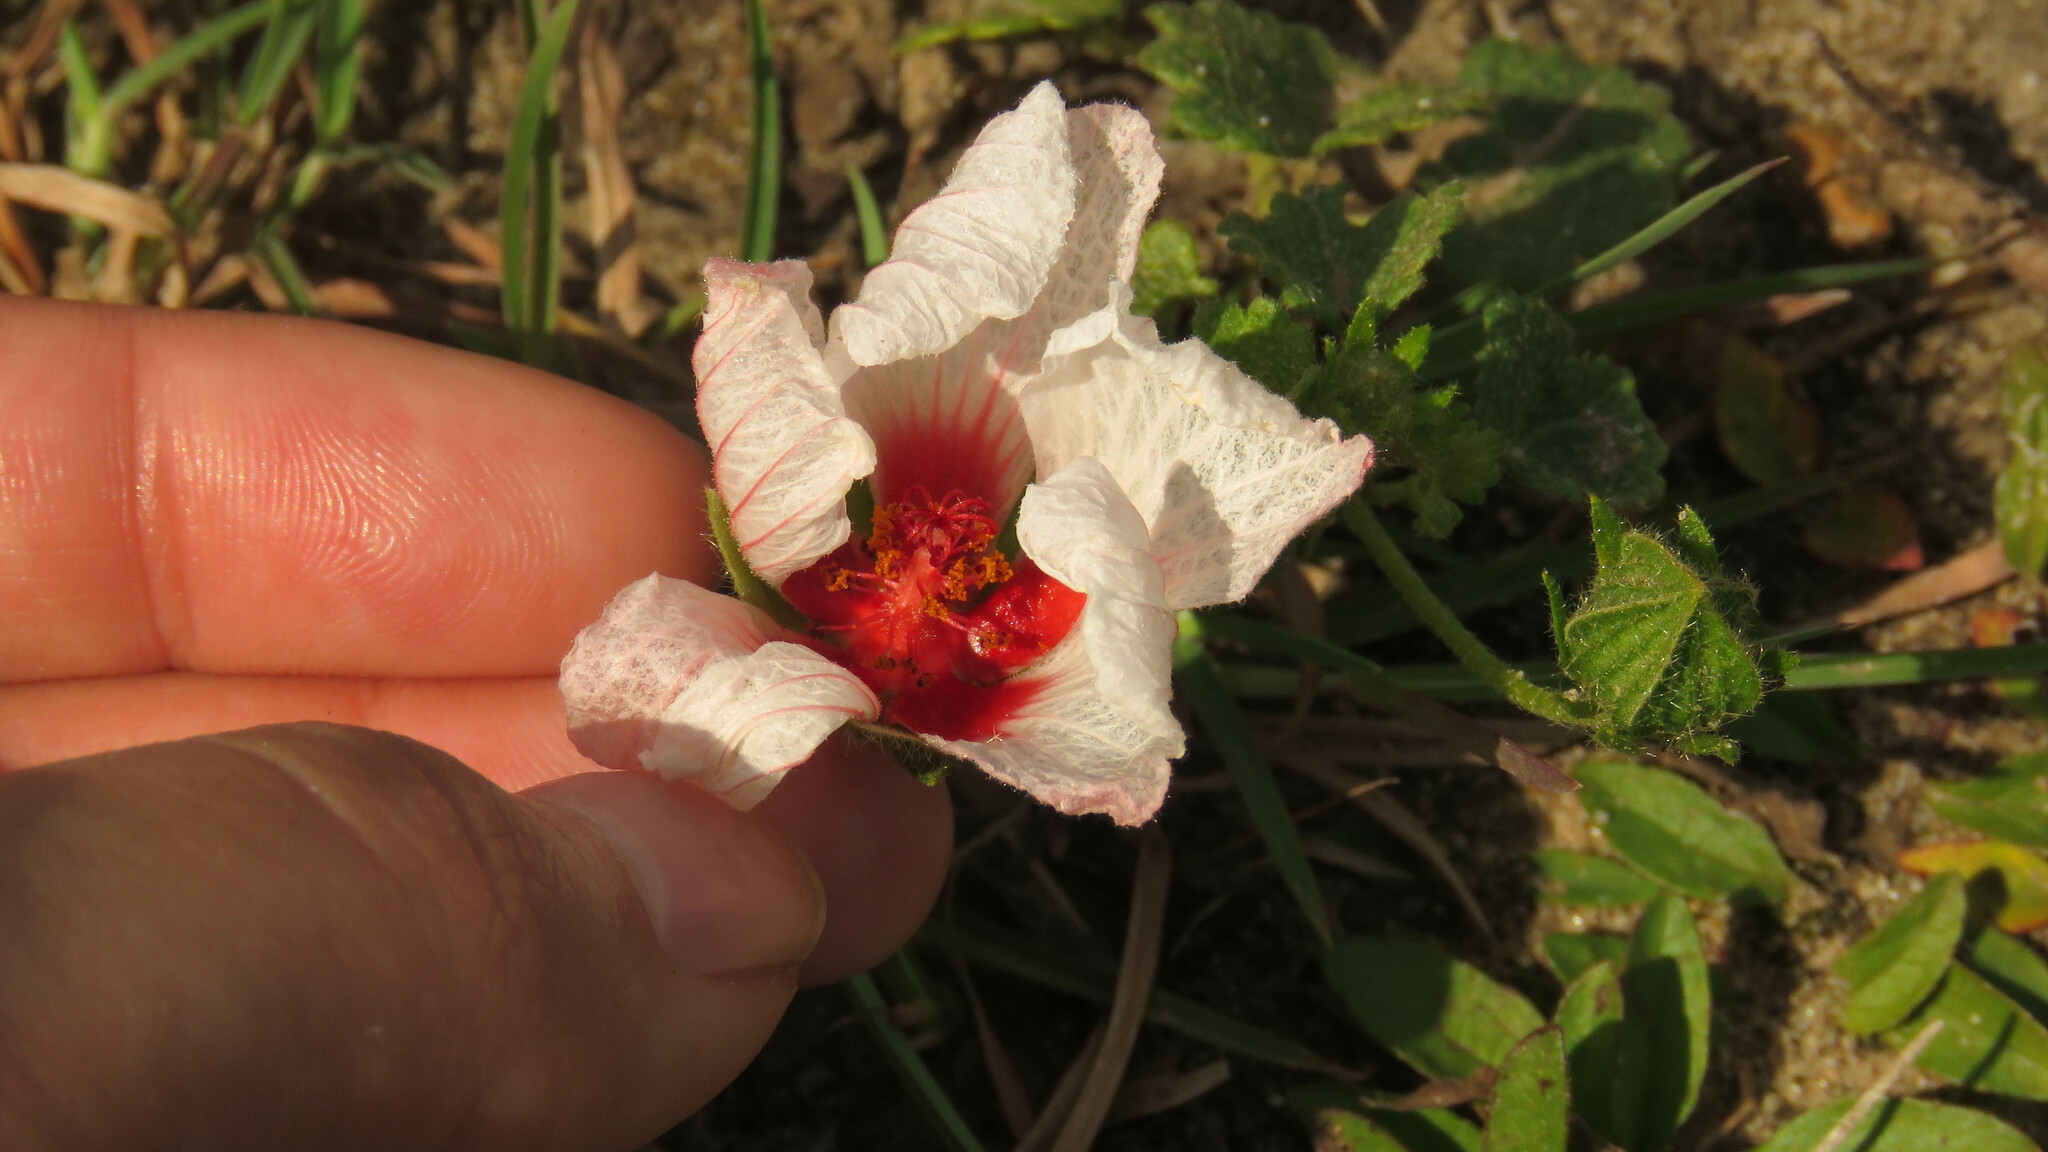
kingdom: Plantae
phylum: Tracheophyta
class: Magnoliopsida
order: Malvales
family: Malvaceae
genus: Pavonia
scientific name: Pavonia glechomoides
